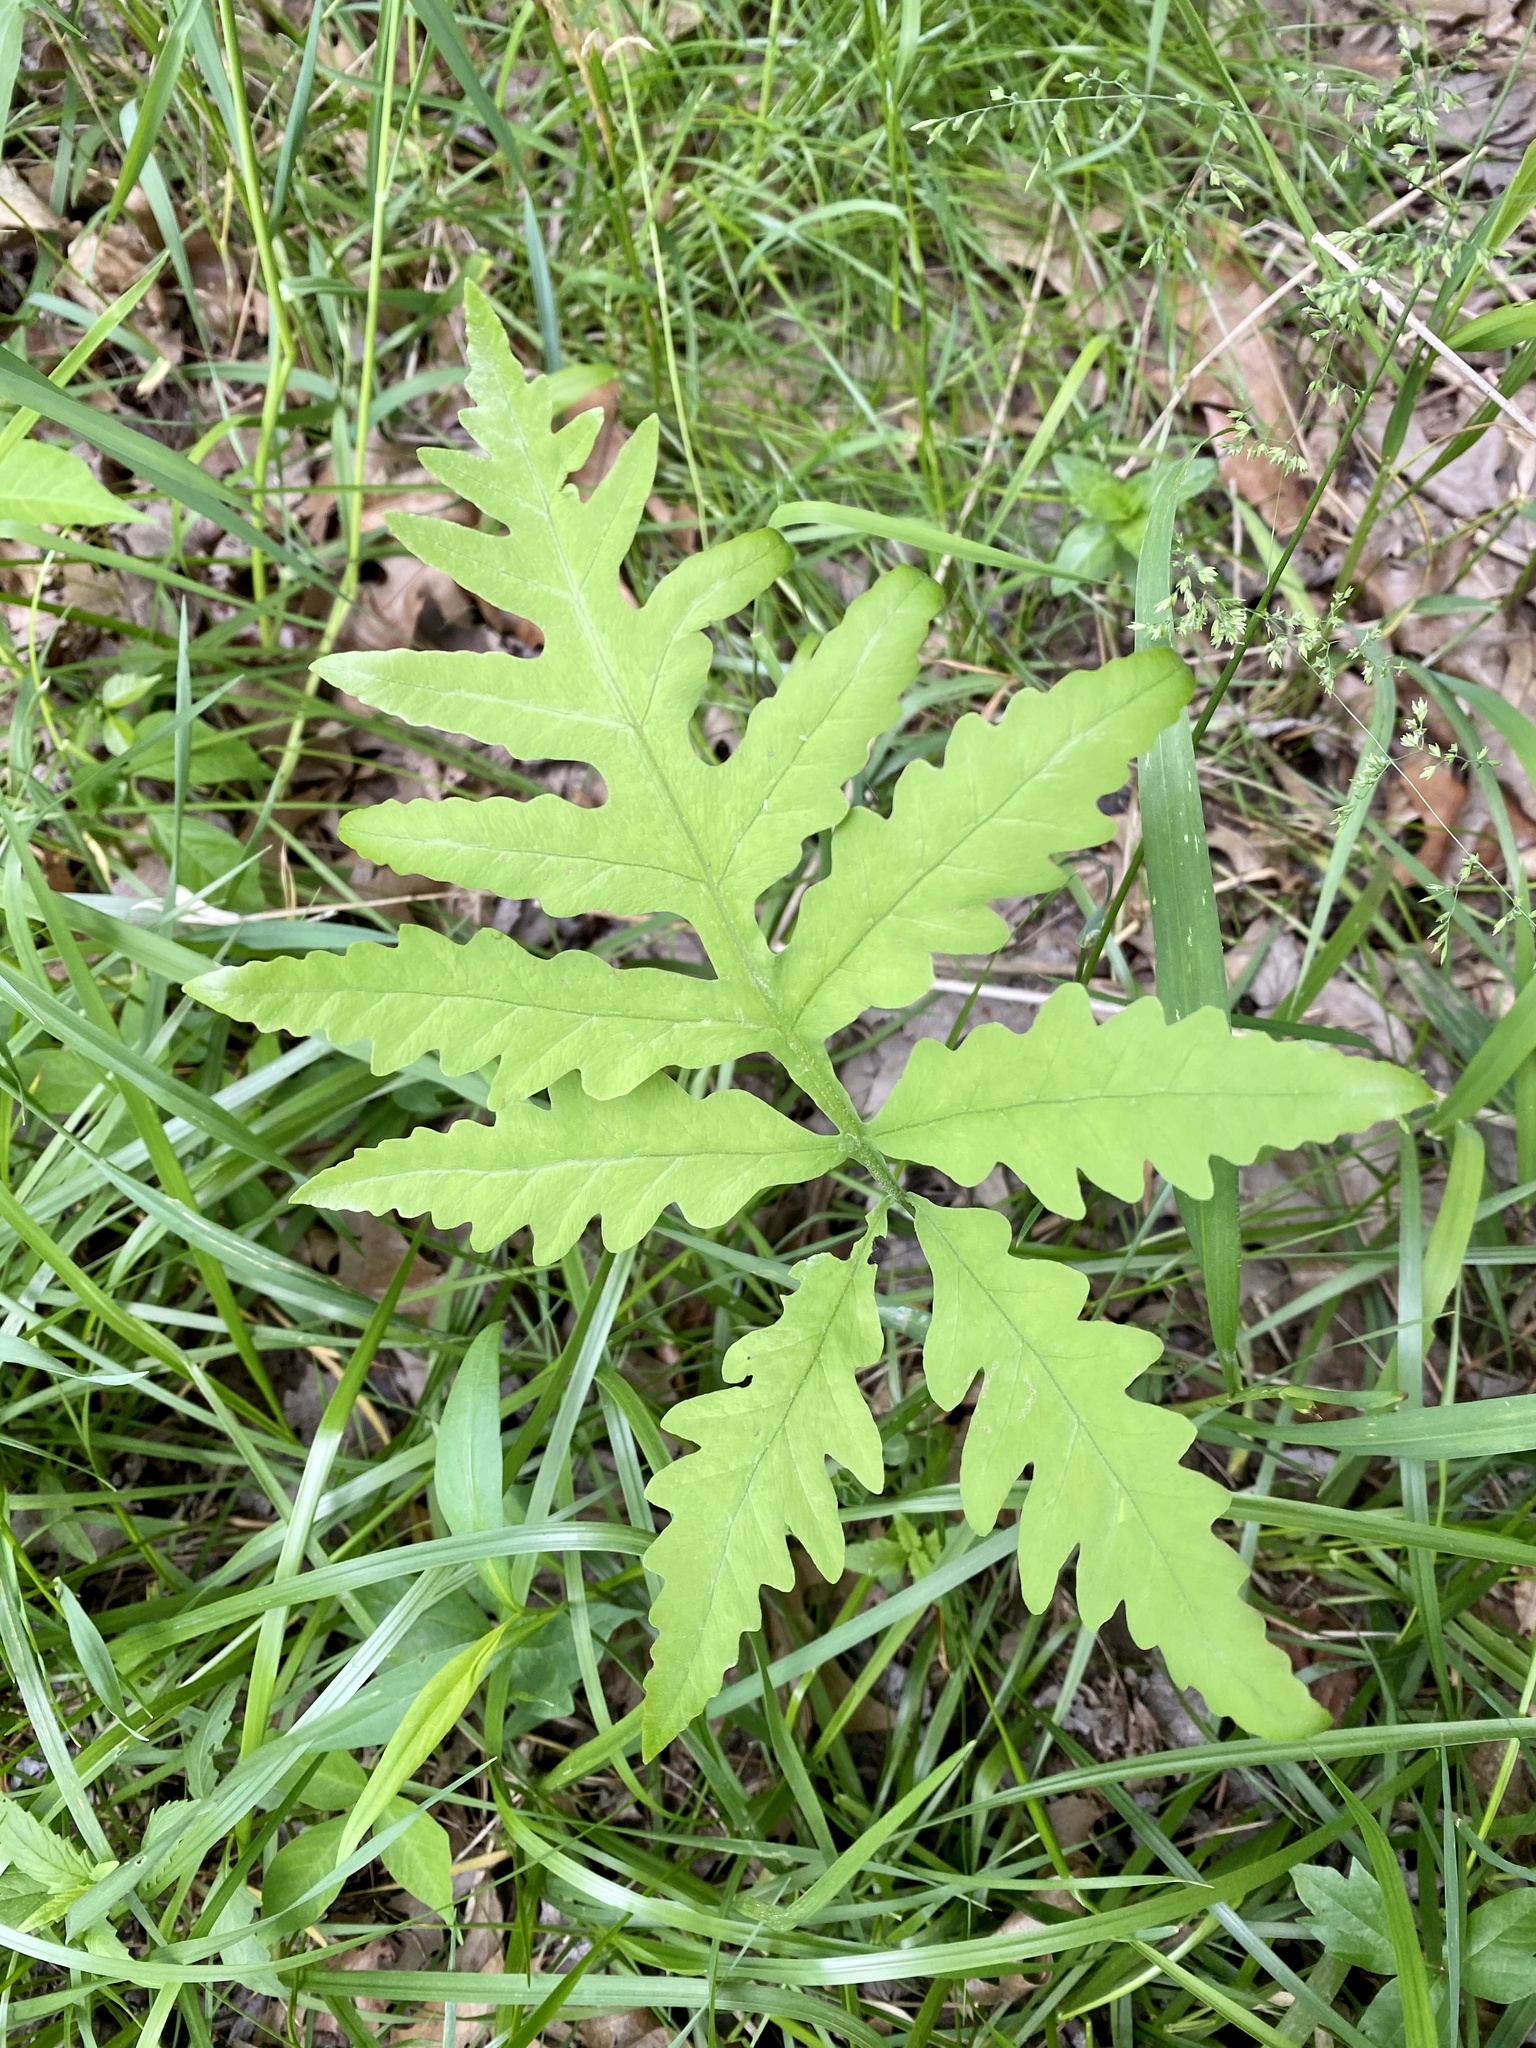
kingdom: Plantae
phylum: Tracheophyta
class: Polypodiopsida
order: Polypodiales
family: Onocleaceae
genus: Onoclea
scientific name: Onoclea sensibilis
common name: Sensitive fern
